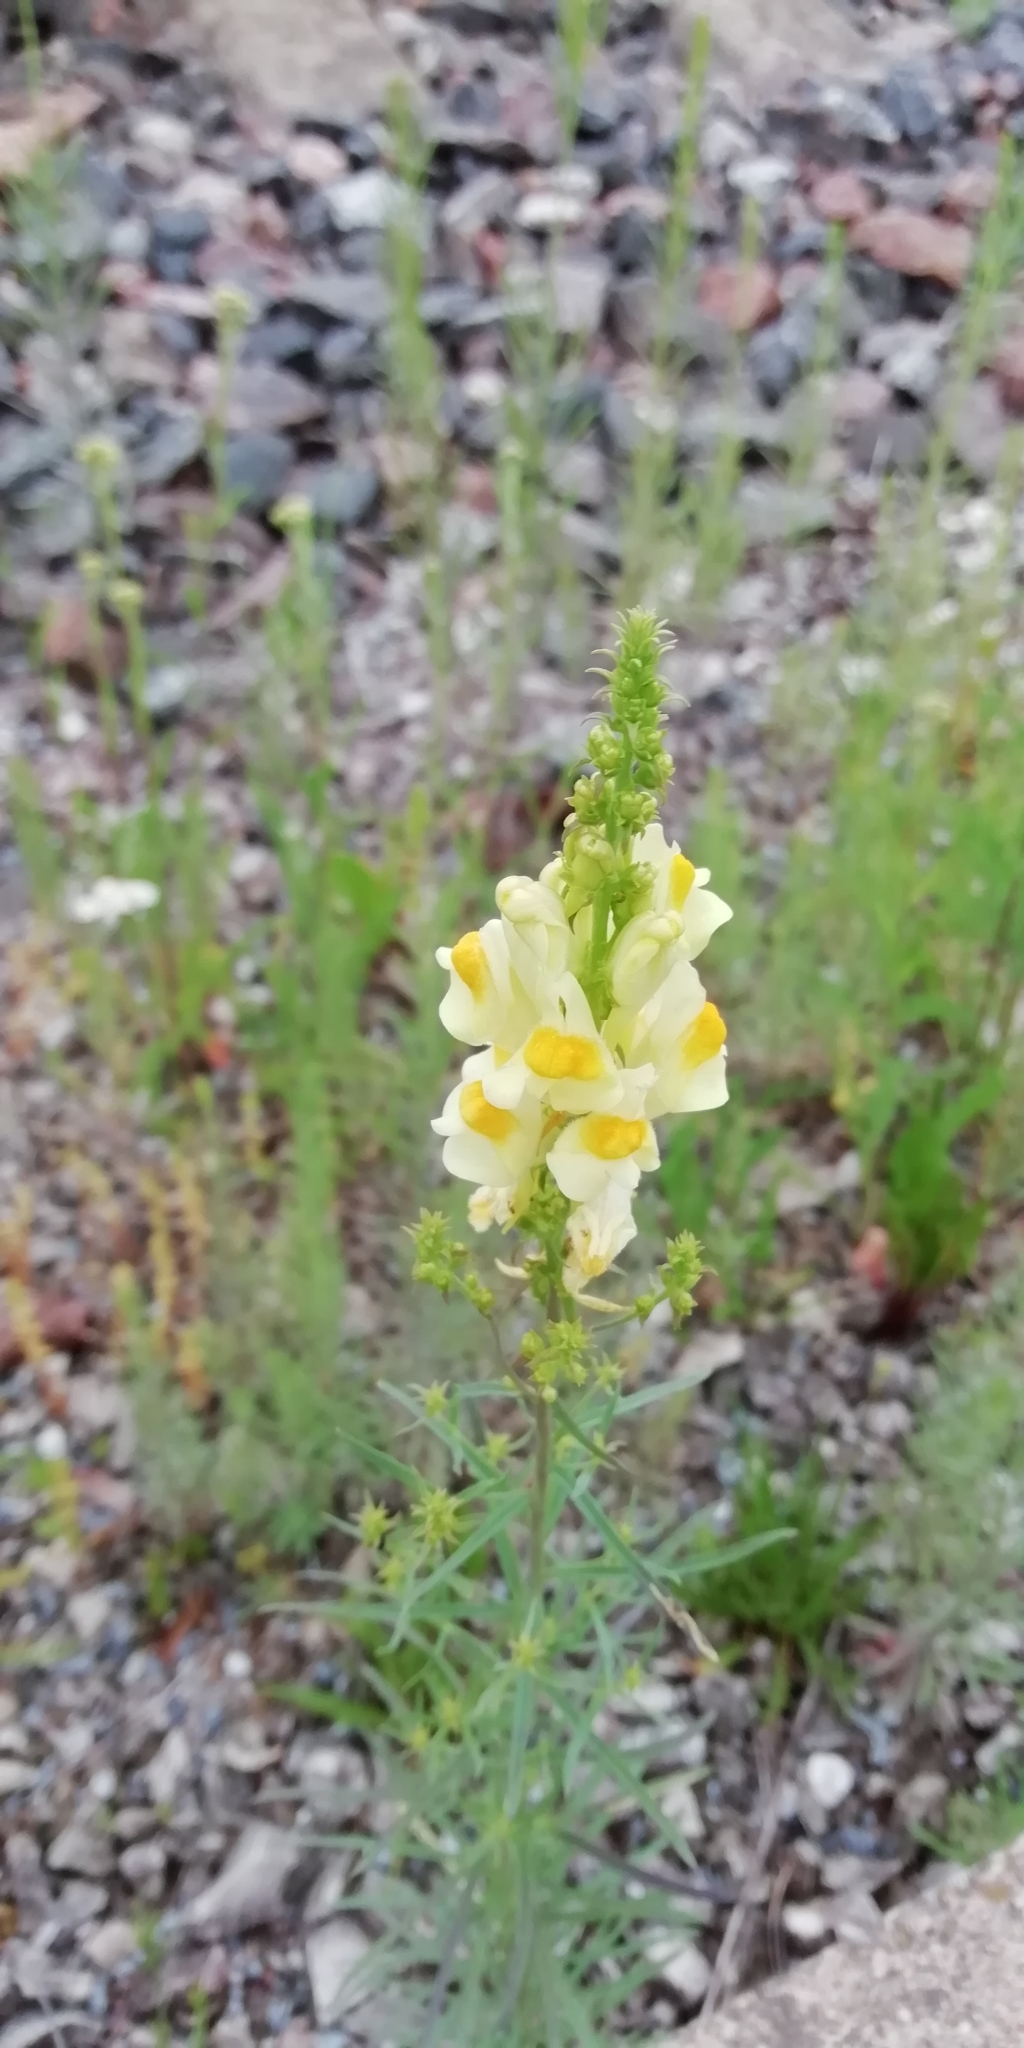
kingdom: Plantae
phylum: Tracheophyta
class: Magnoliopsida
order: Lamiales
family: Plantaginaceae
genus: Linaria
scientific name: Linaria vulgaris
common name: Butter and eggs
